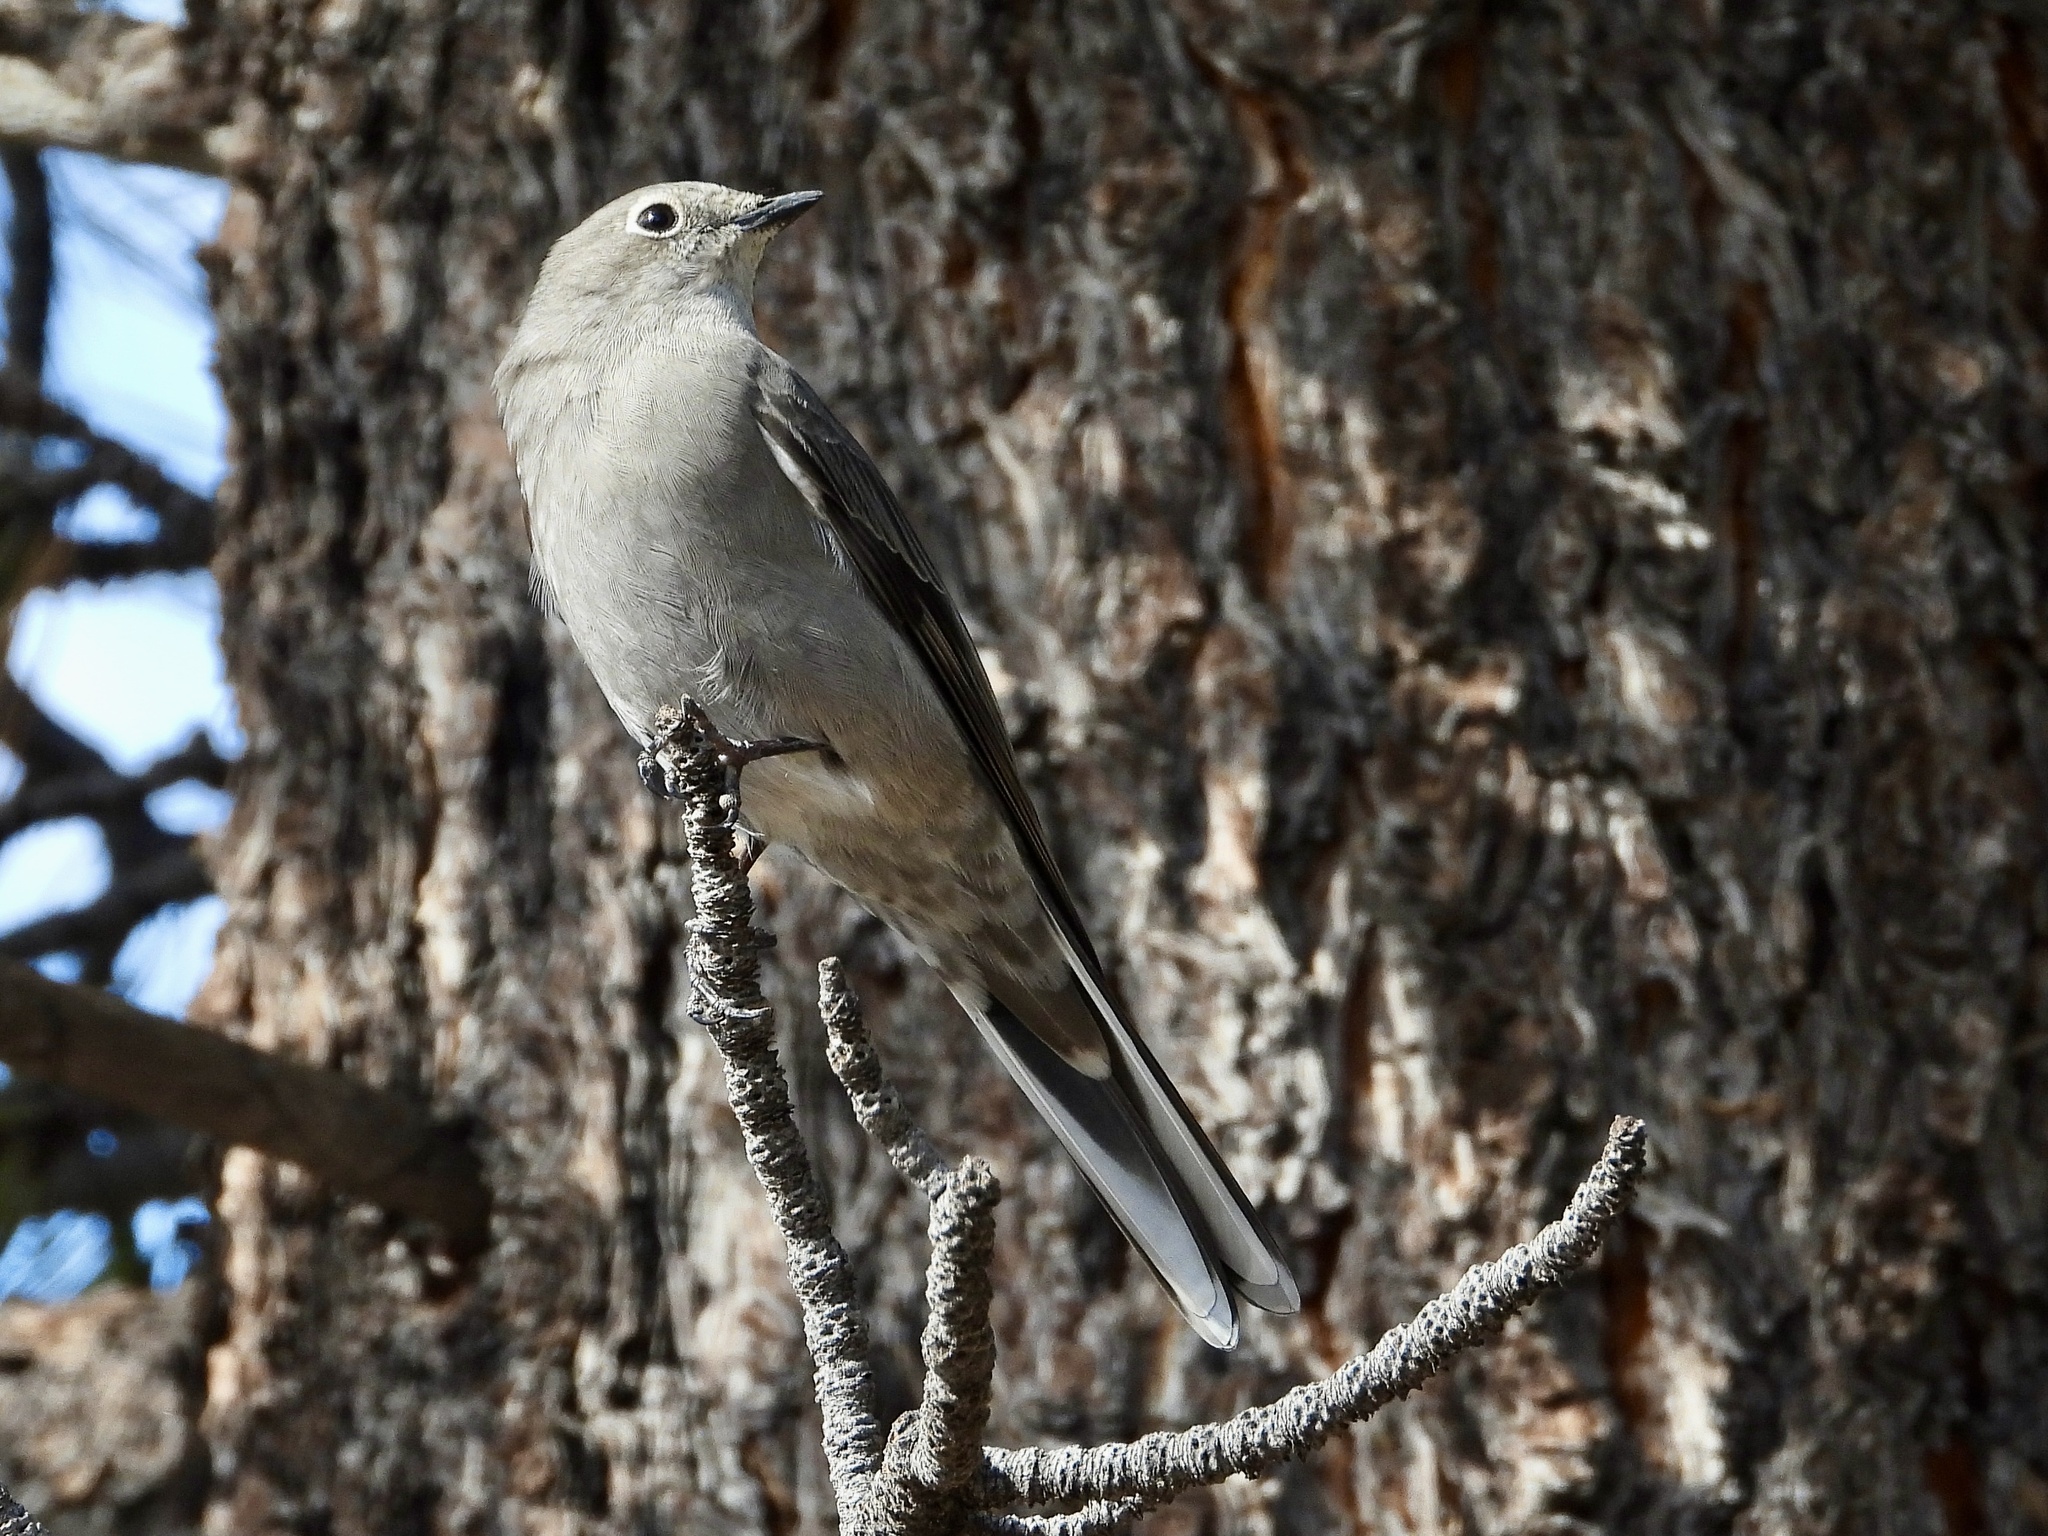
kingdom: Animalia
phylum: Chordata
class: Aves
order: Passeriformes
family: Turdidae
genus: Myadestes
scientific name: Myadestes townsendi
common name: Townsend's solitaire
